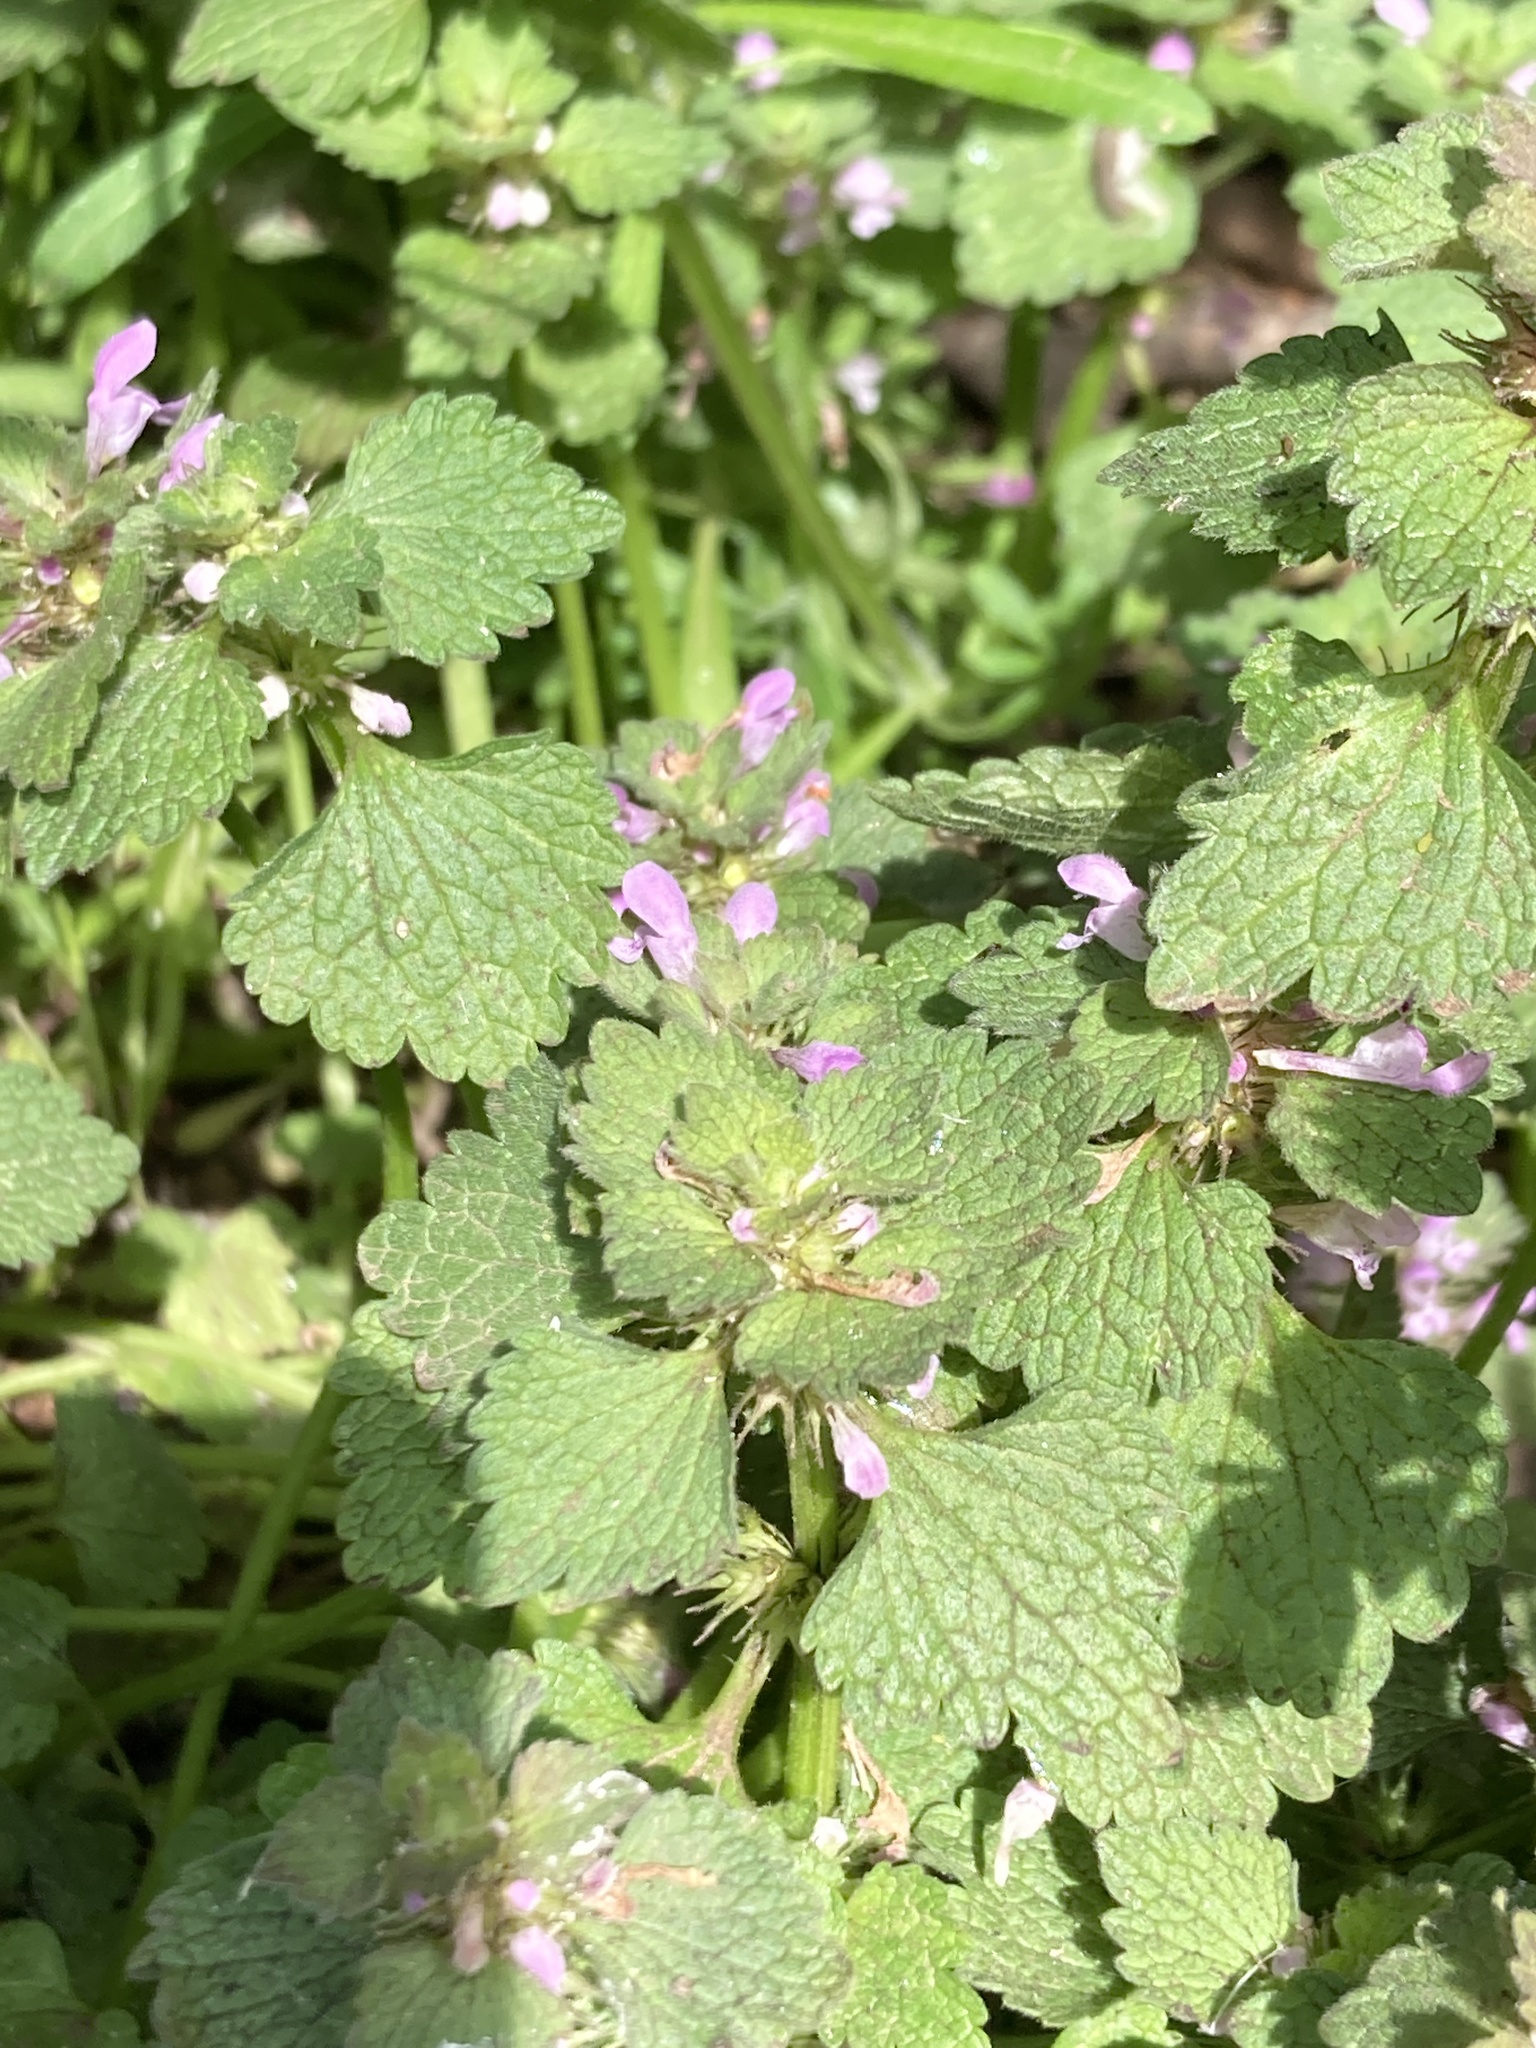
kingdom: Plantae
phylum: Tracheophyta
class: Magnoliopsida
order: Lamiales
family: Lamiaceae
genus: Lamium
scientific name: Lamium purpureum
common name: Red dead-nettle
